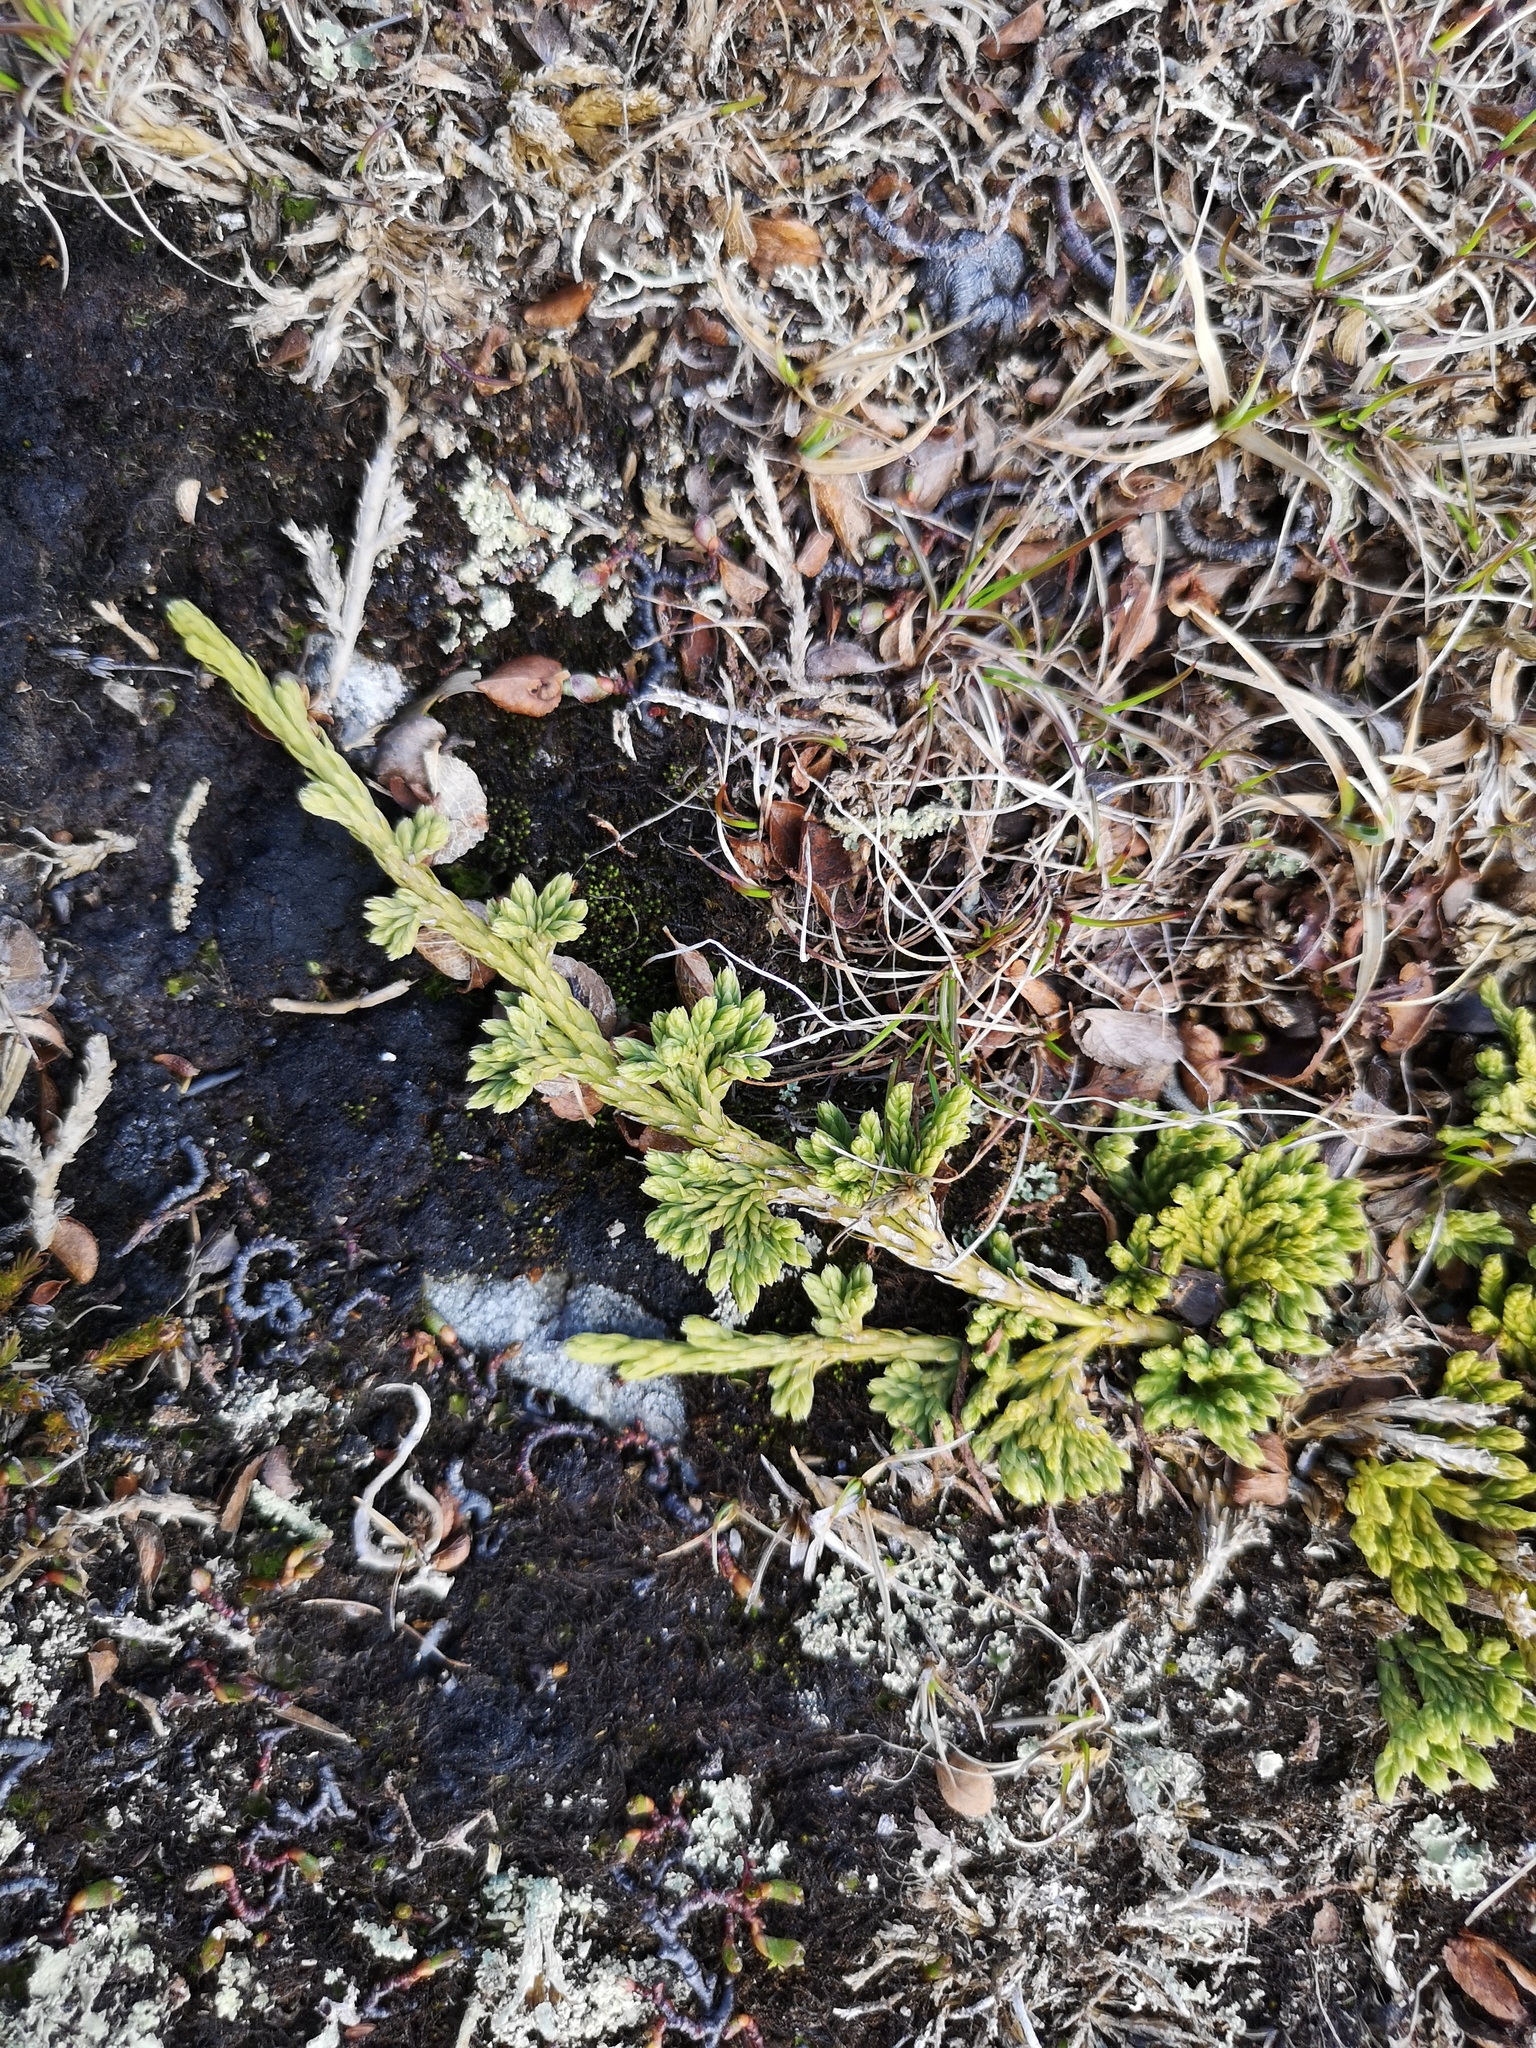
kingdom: Plantae
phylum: Tracheophyta
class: Lycopodiopsida
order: Lycopodiales
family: Lycopodiaceae
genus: Diphasiastrum
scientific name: Diphasiastrum alpinum
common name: Alpine clubmoss
